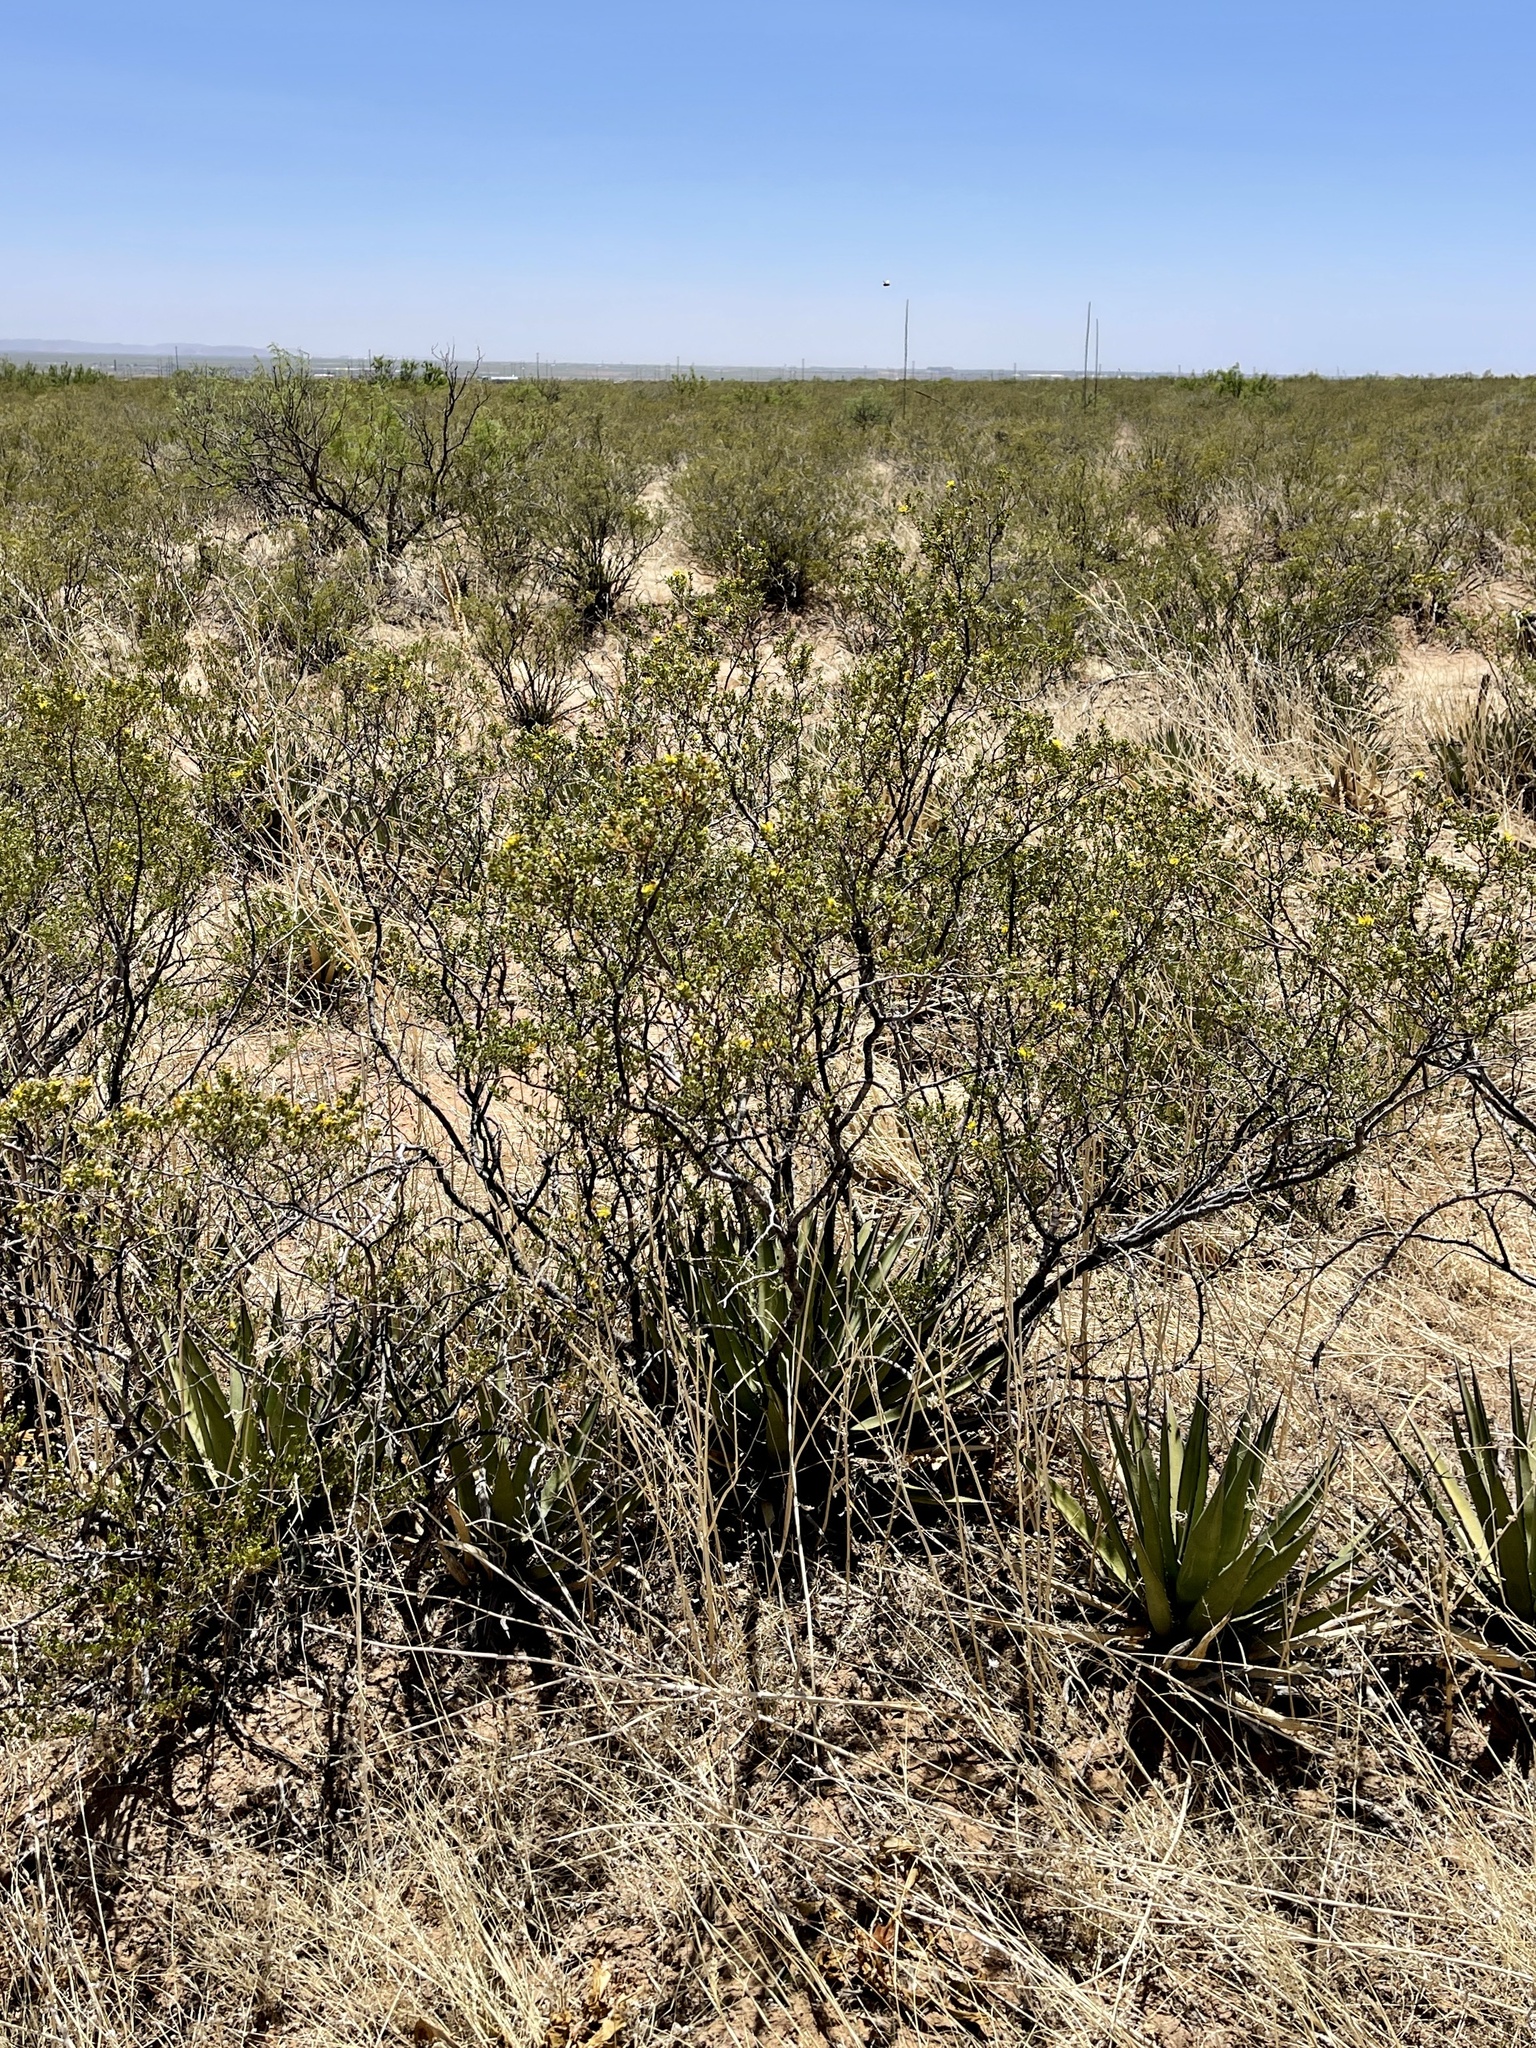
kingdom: Plantae
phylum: Tracheophyta
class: Magnoliopsida
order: Zygophyllales
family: Zygophyllaceae
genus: Larrea
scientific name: Larrea tridentata
